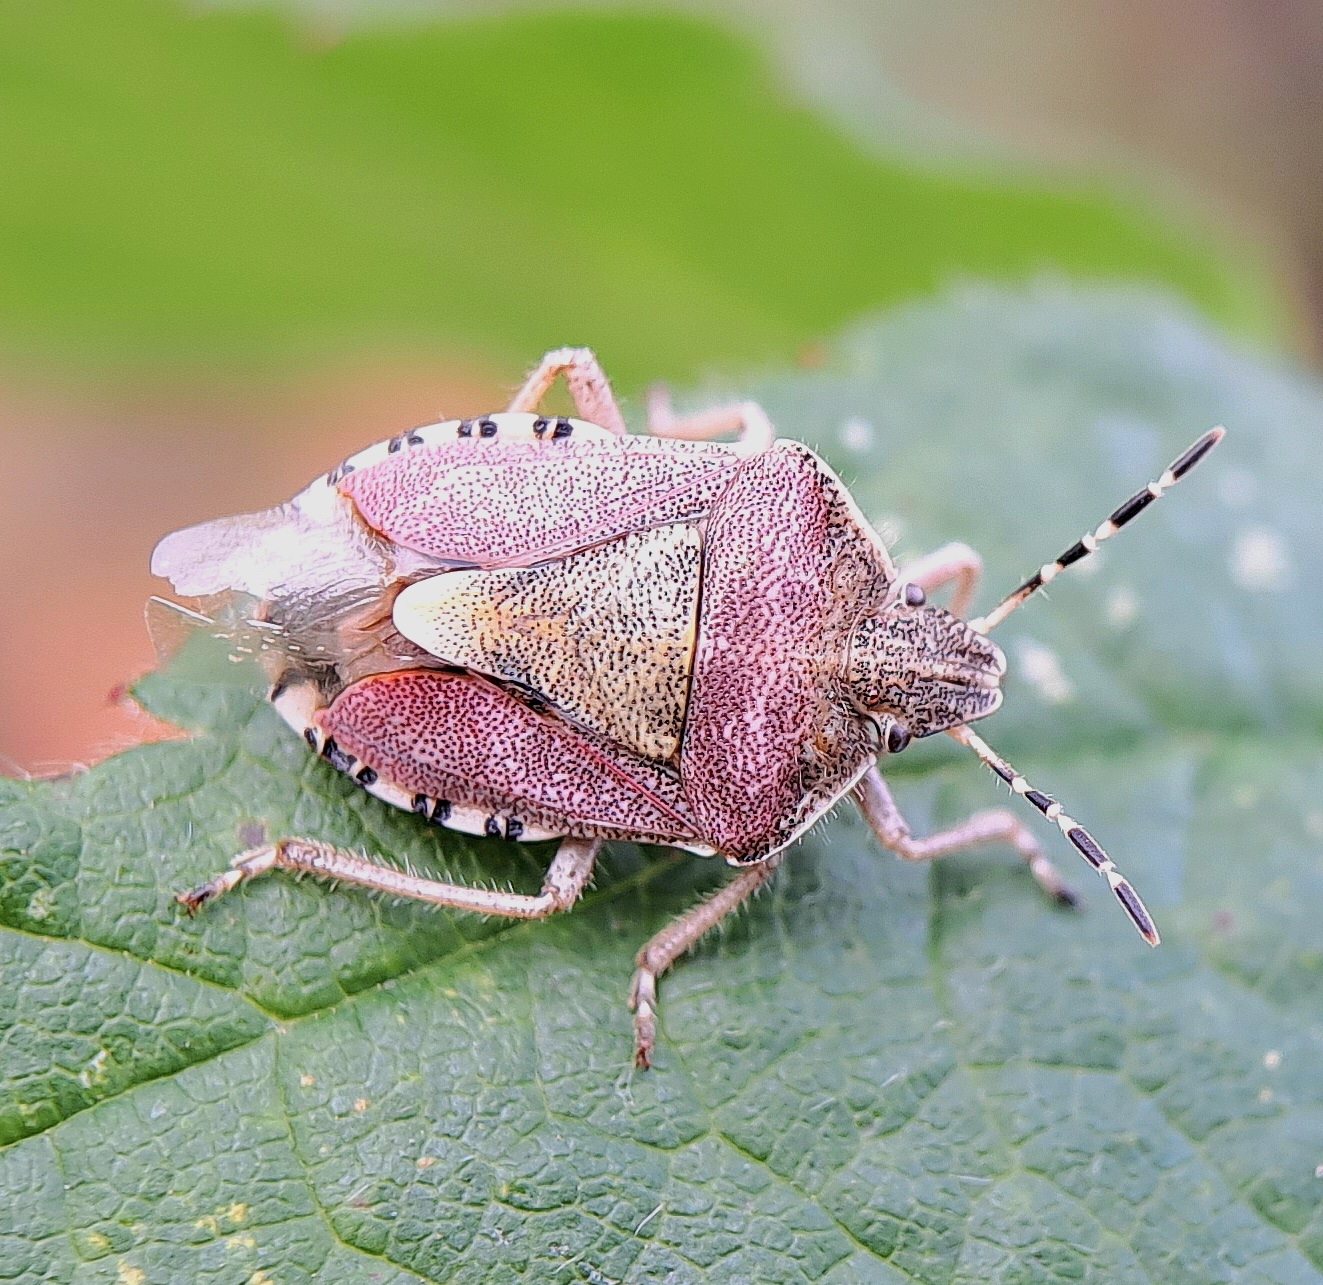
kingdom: Animalia
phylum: Arthropoda
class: Insecta
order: Hemiptera
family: Pentatomidae
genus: Dolycoris
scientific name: Dolycoris baccarum
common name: Sloe bug
